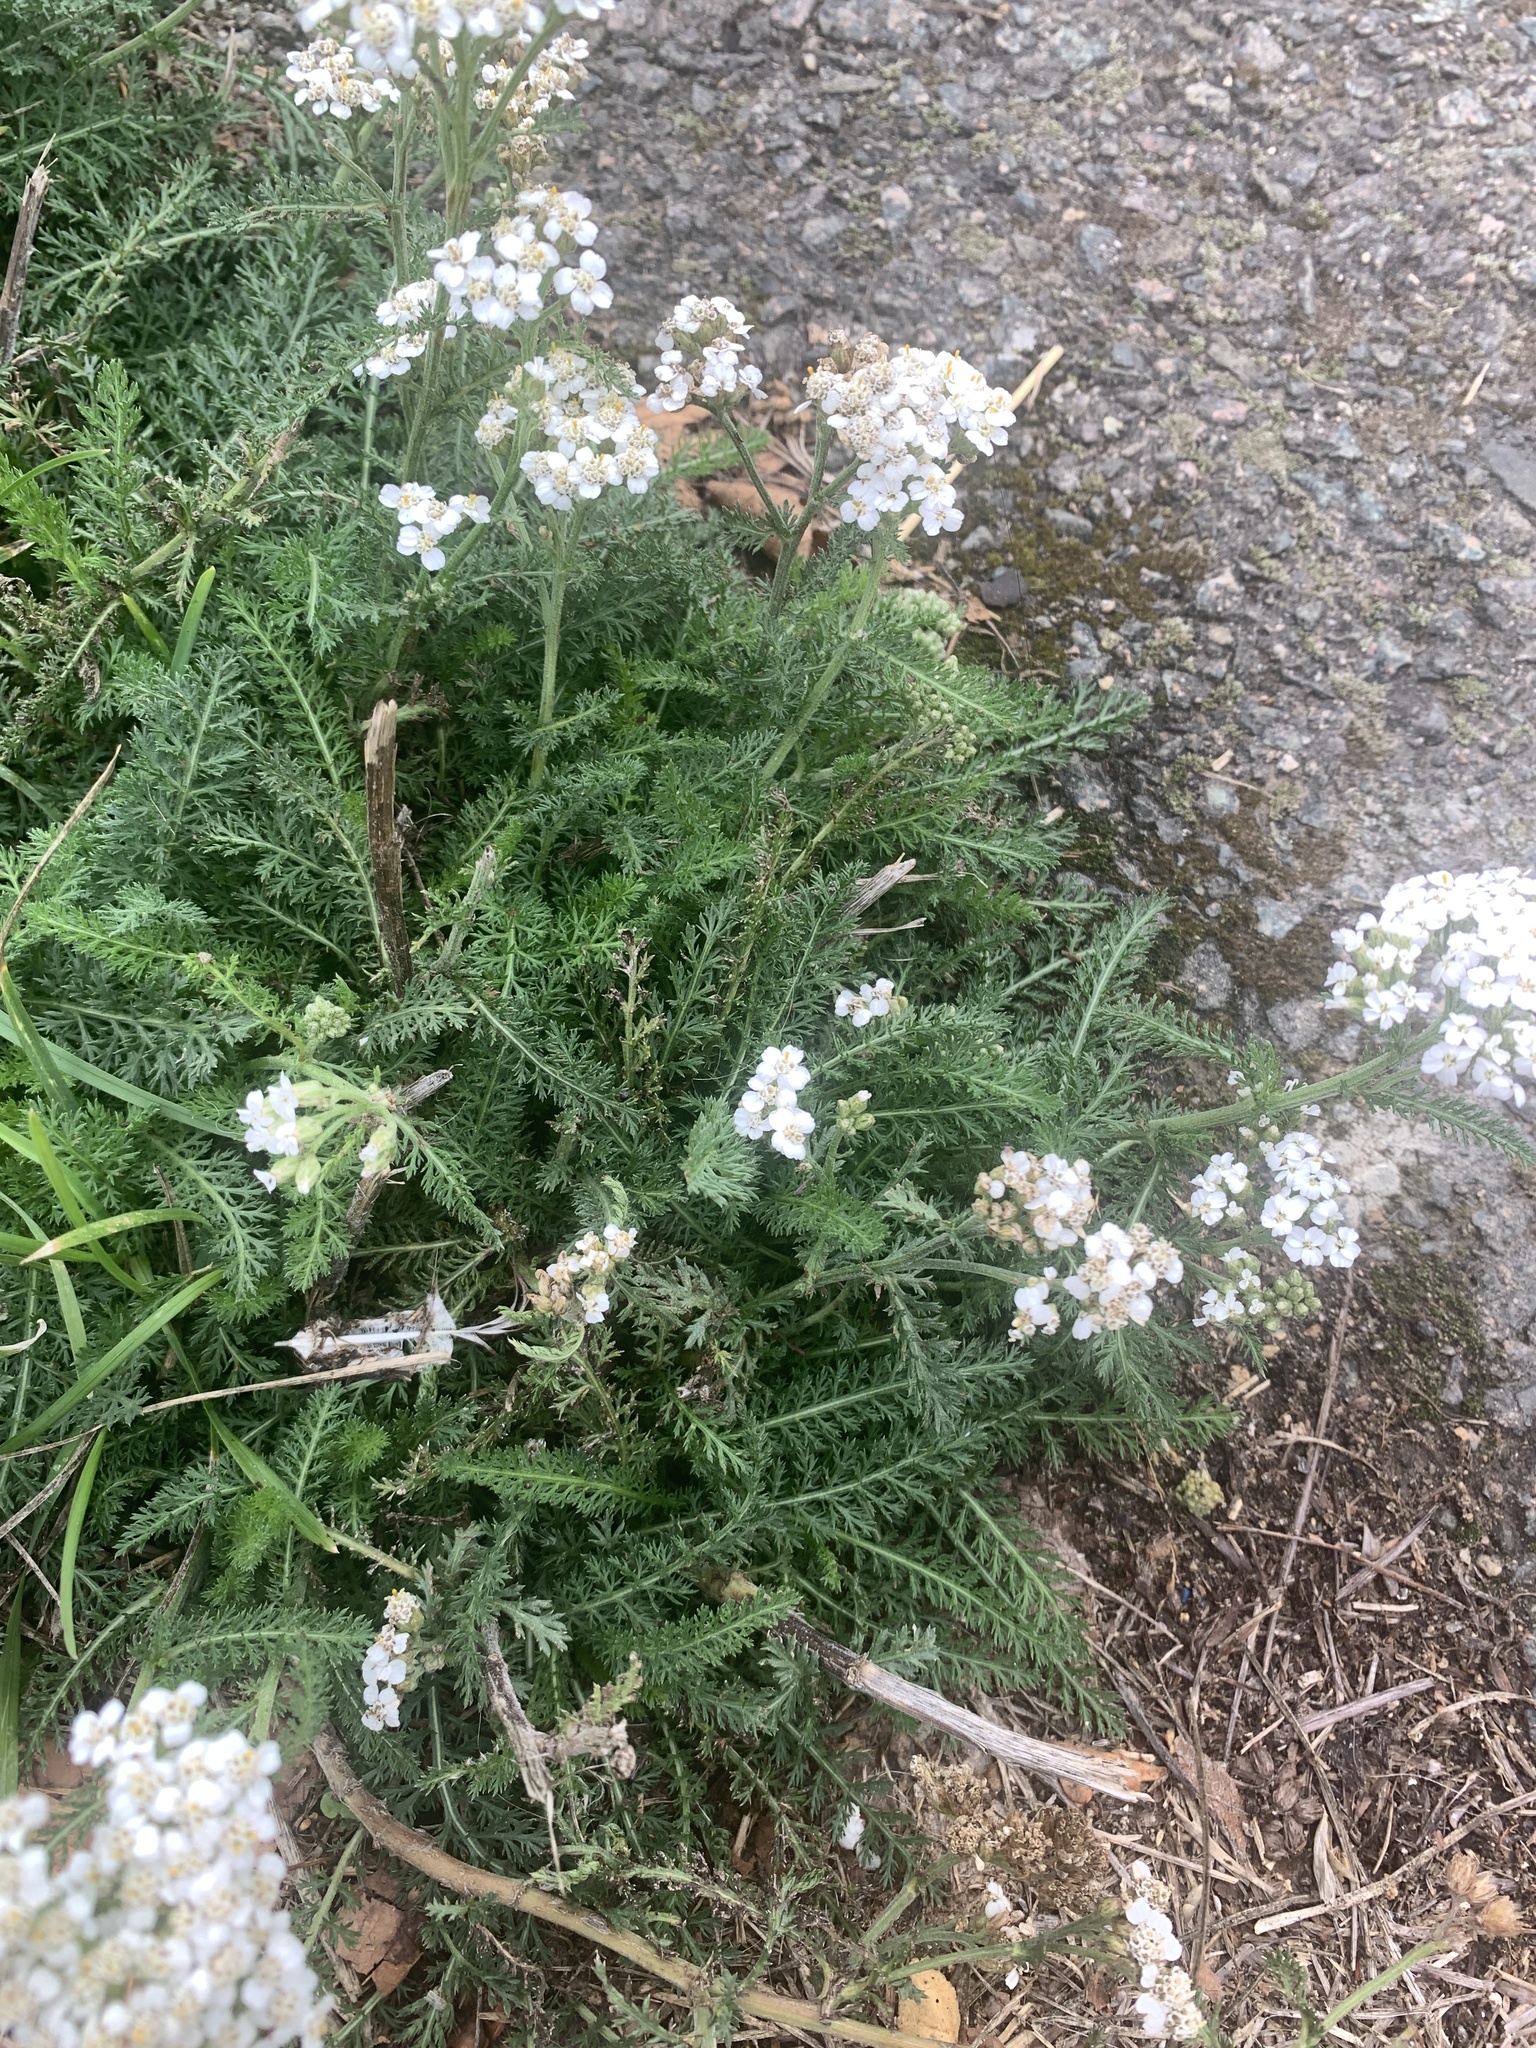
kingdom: Plantae
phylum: Tracheophyta
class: Magnoliopsida
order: Asterales
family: Asteraceae
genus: Achillea
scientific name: Achillea millefolium
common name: Yarrow
